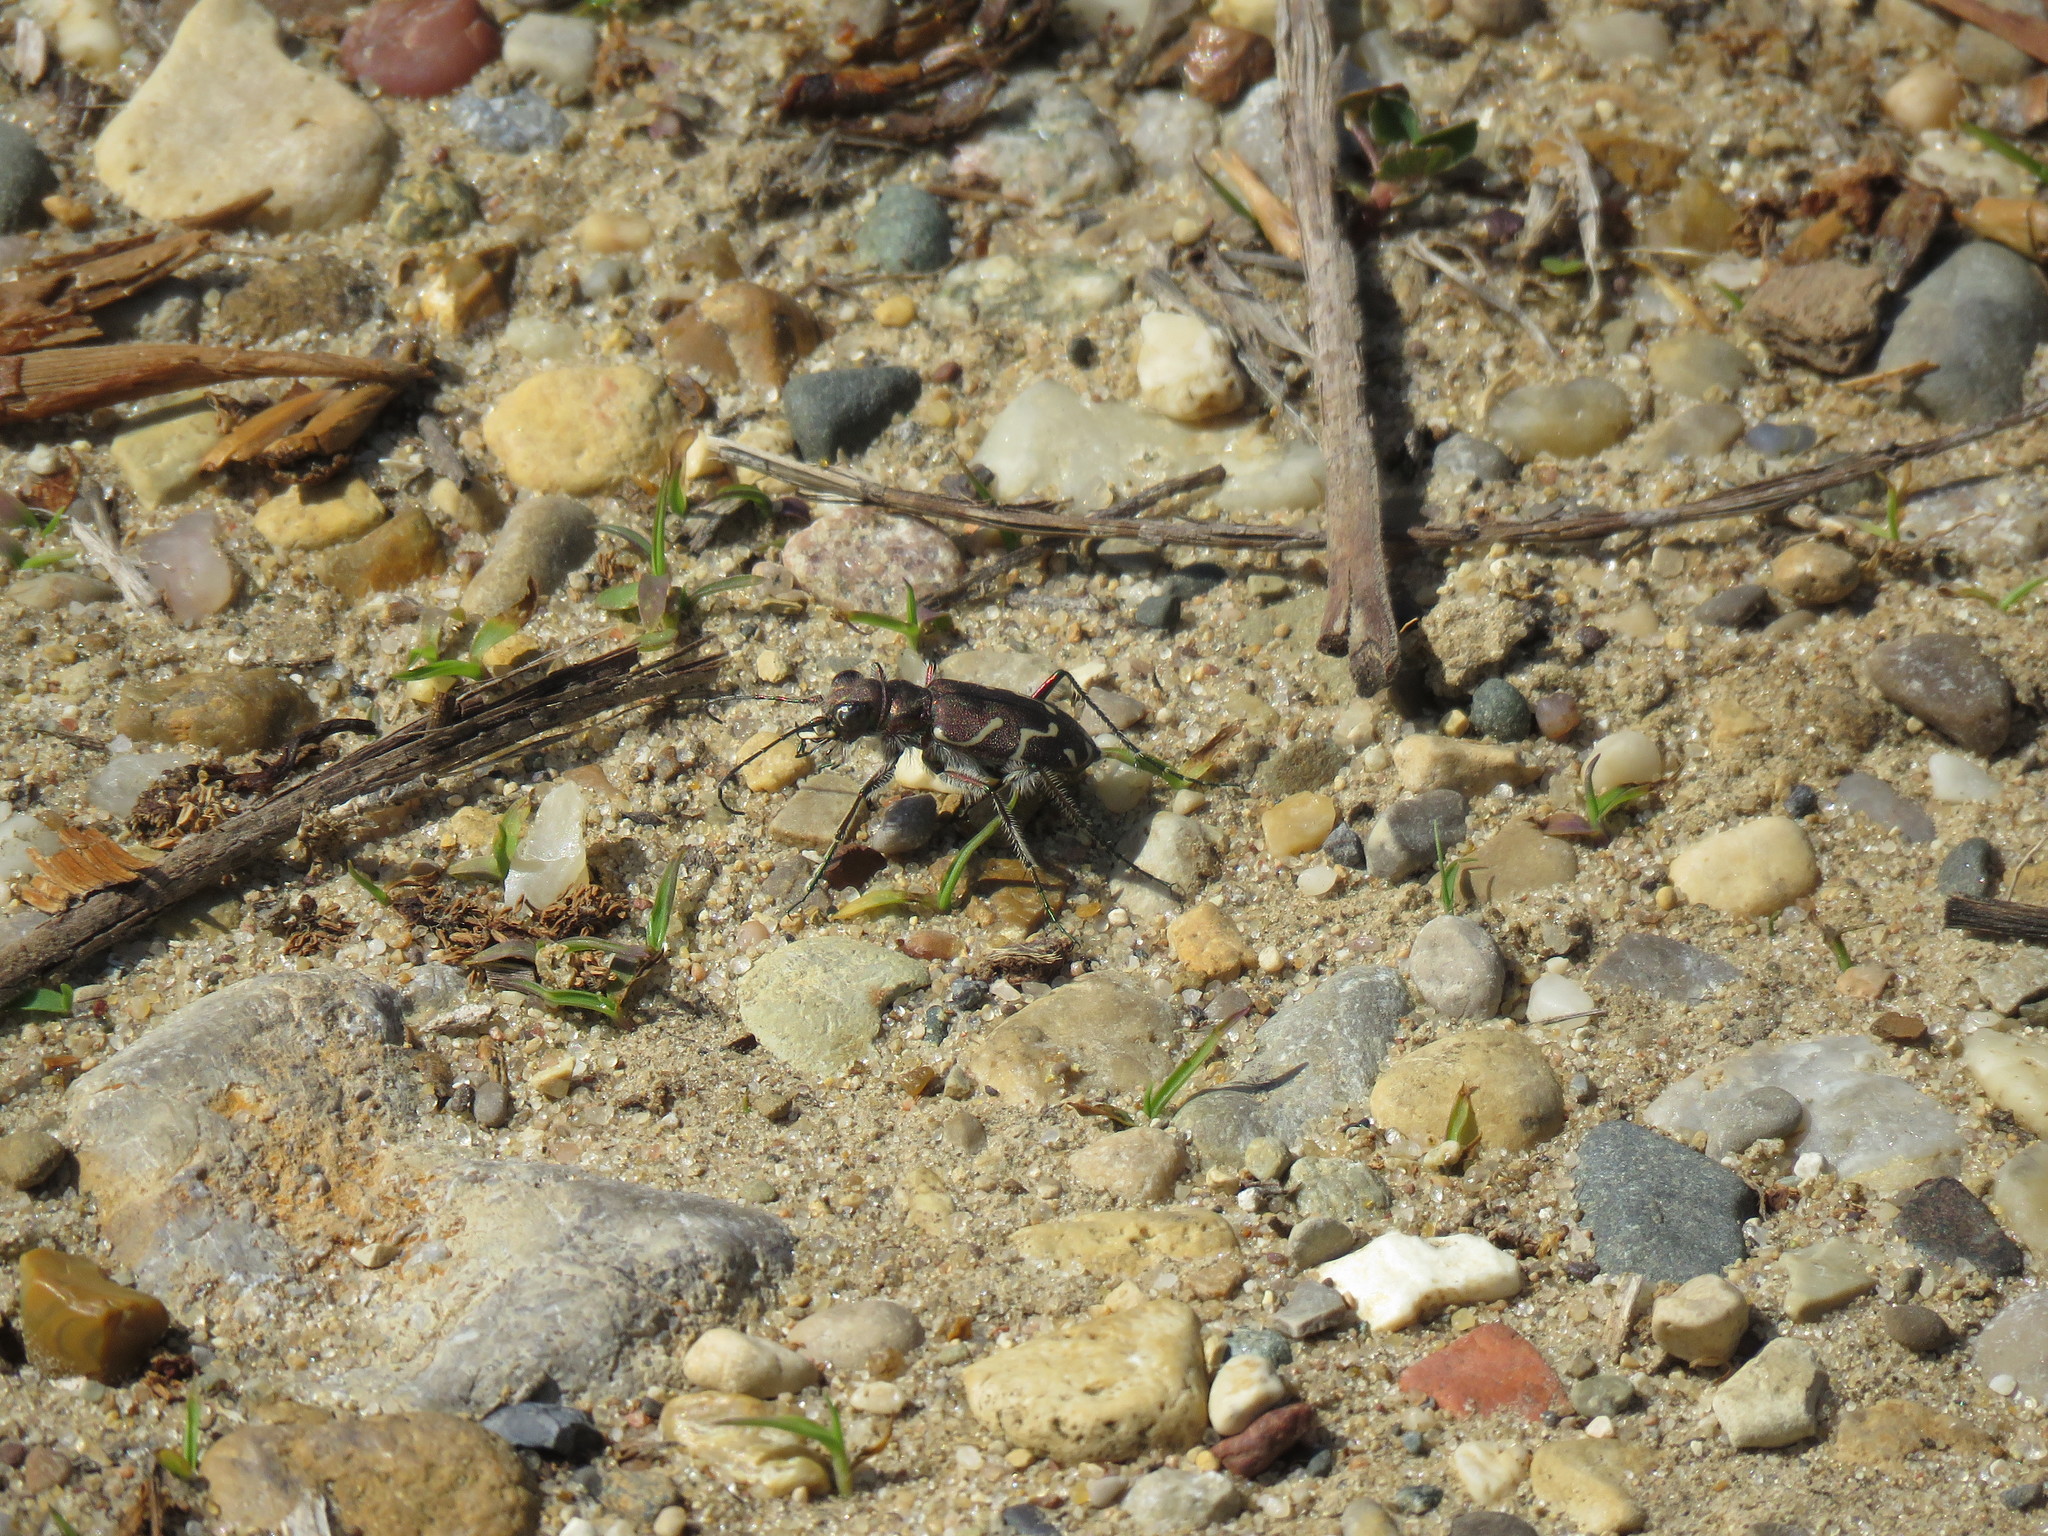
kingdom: Animalia
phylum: Arthropoda
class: Insecta
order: Coleoptera
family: Carabidae
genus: Cicindela
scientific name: Cicindela tranquebarica
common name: Oblique-lined tiger beetle
